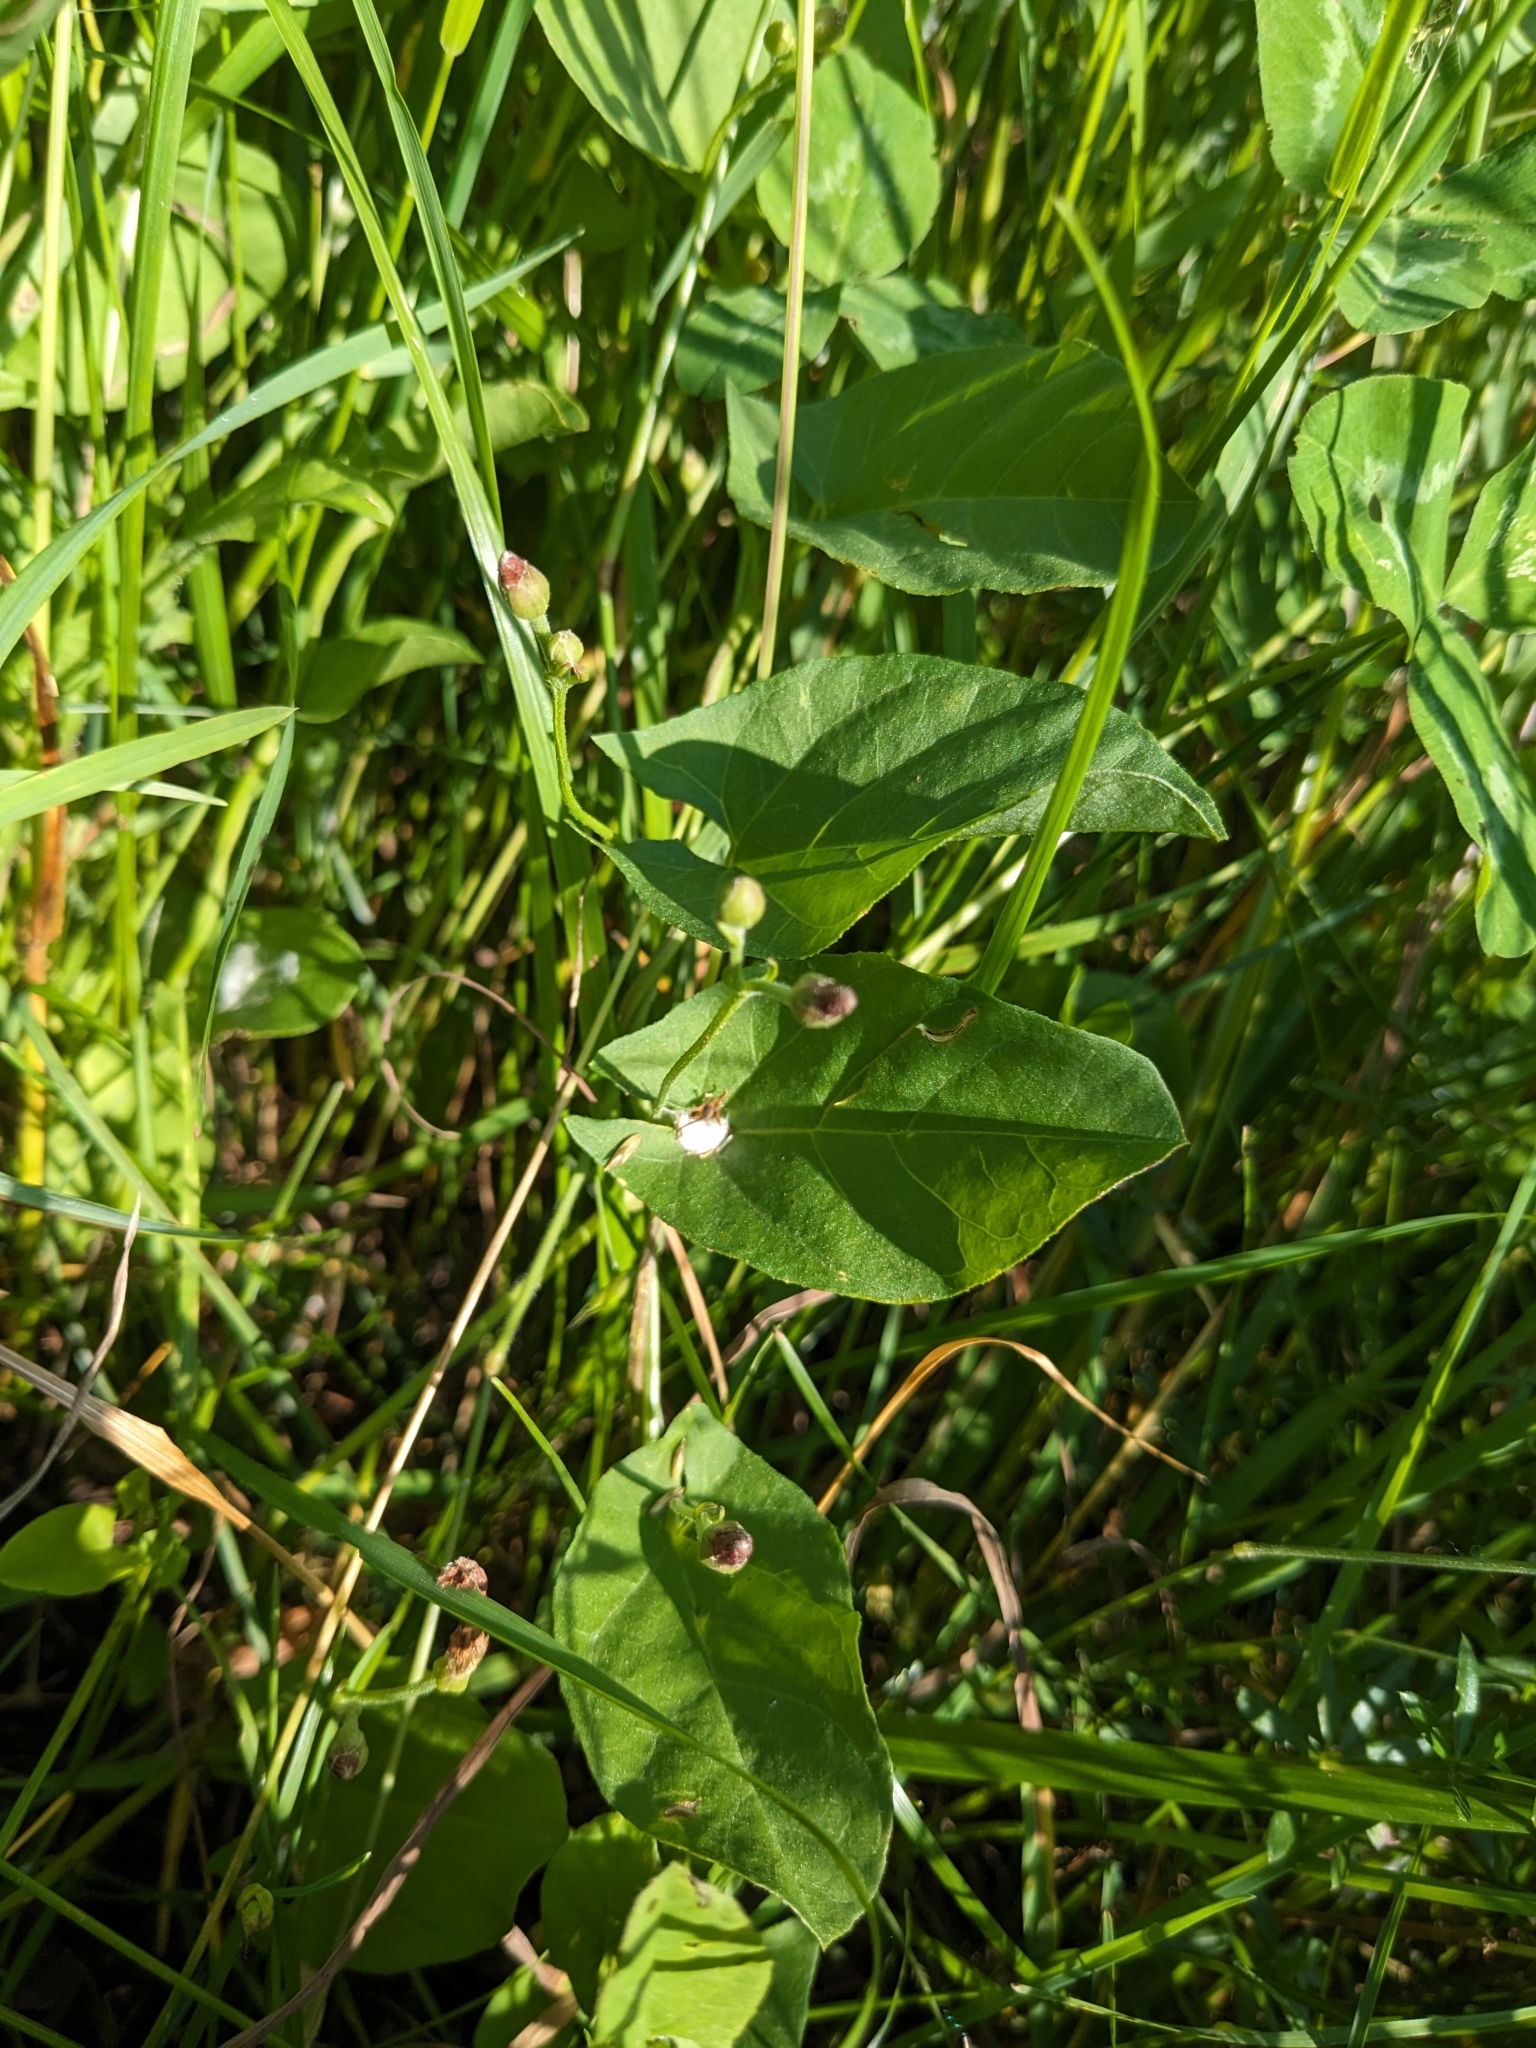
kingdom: Plantae
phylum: Tracheophyta
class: Magnoliopsida
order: Solanales
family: Convolvulaceae
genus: Convolvulus
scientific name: Convolvulus arvensis
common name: Field bindweed
